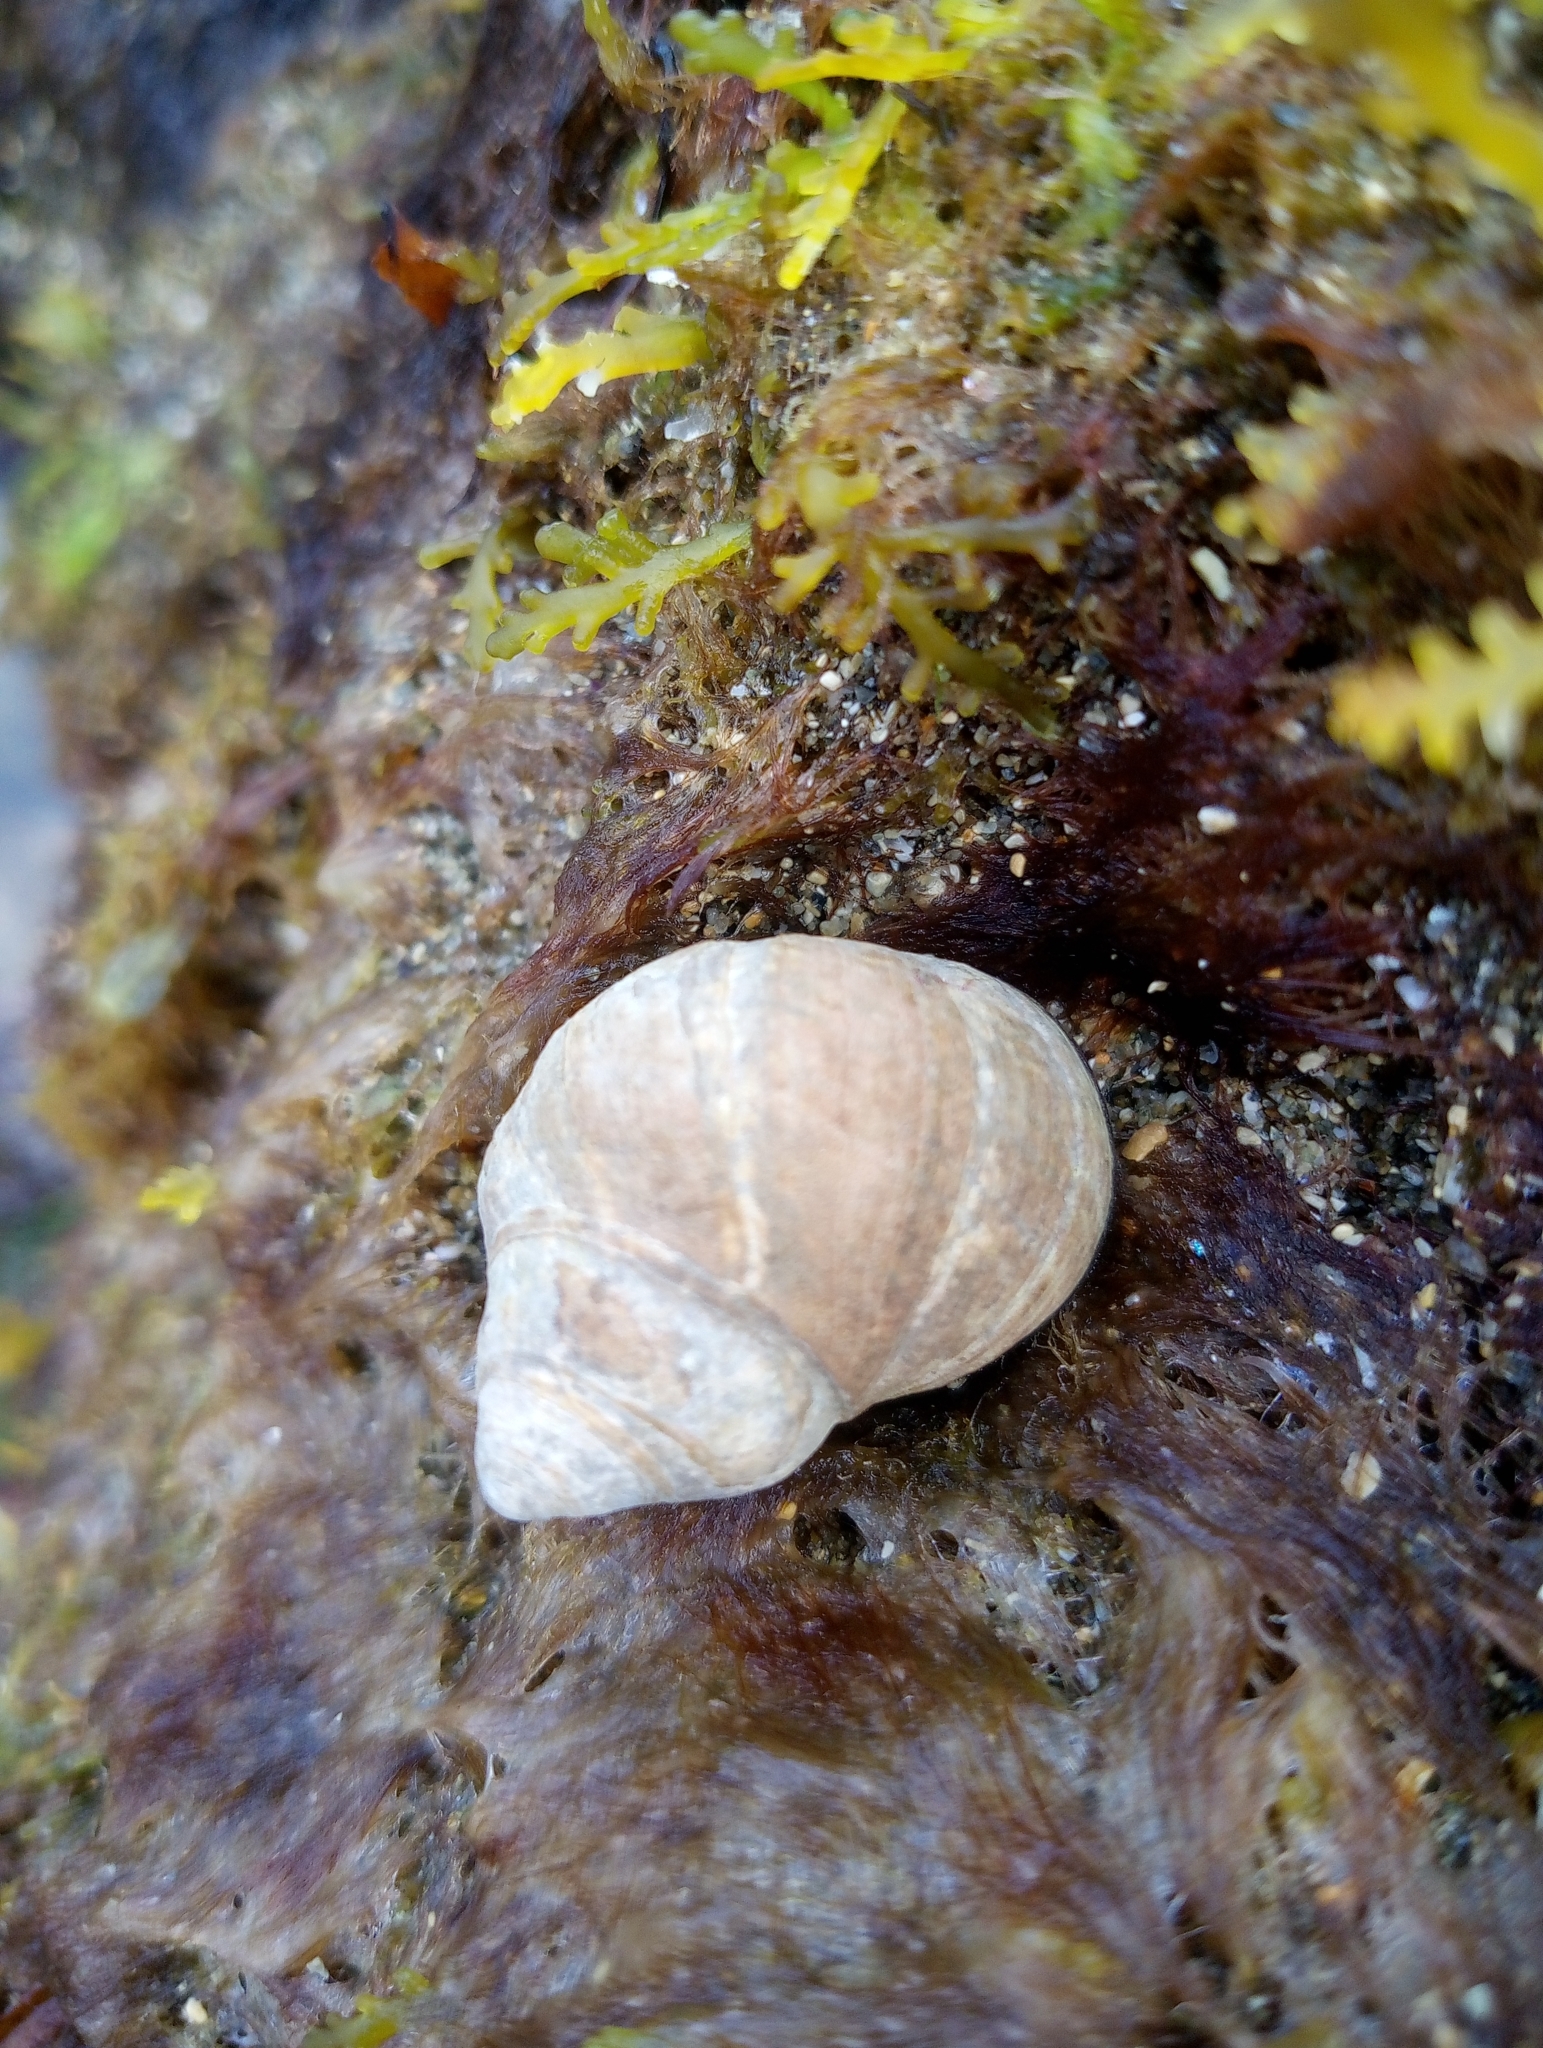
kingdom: Animalia
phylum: Mollusca
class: Gastropoda
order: Littorinimorpha
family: Littorinidae
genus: Littorina
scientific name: Littorina littorea
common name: Common periwinkle
